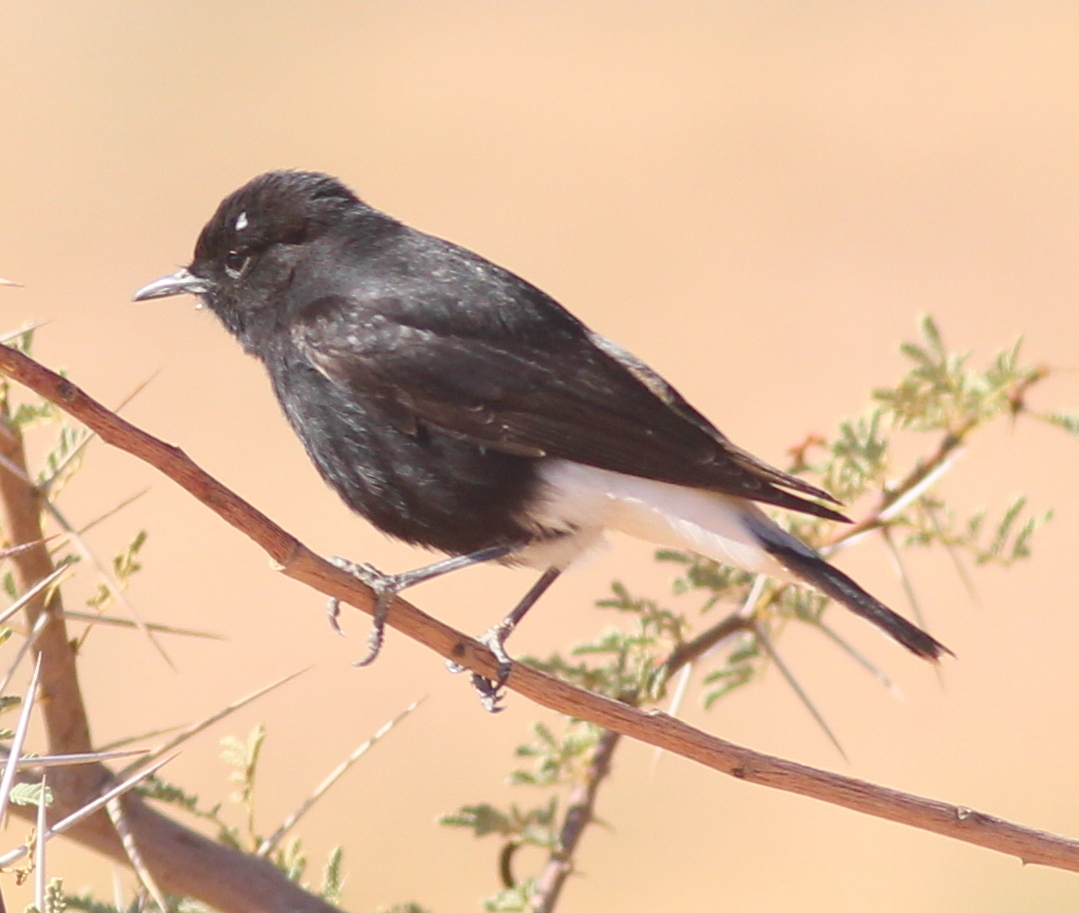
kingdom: Animalia
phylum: Chordata
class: Aves
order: Passeriformes
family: Muscicapidae
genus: Oenanthe
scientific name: Oenanthe leucopyga
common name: White-crowned wheatear
